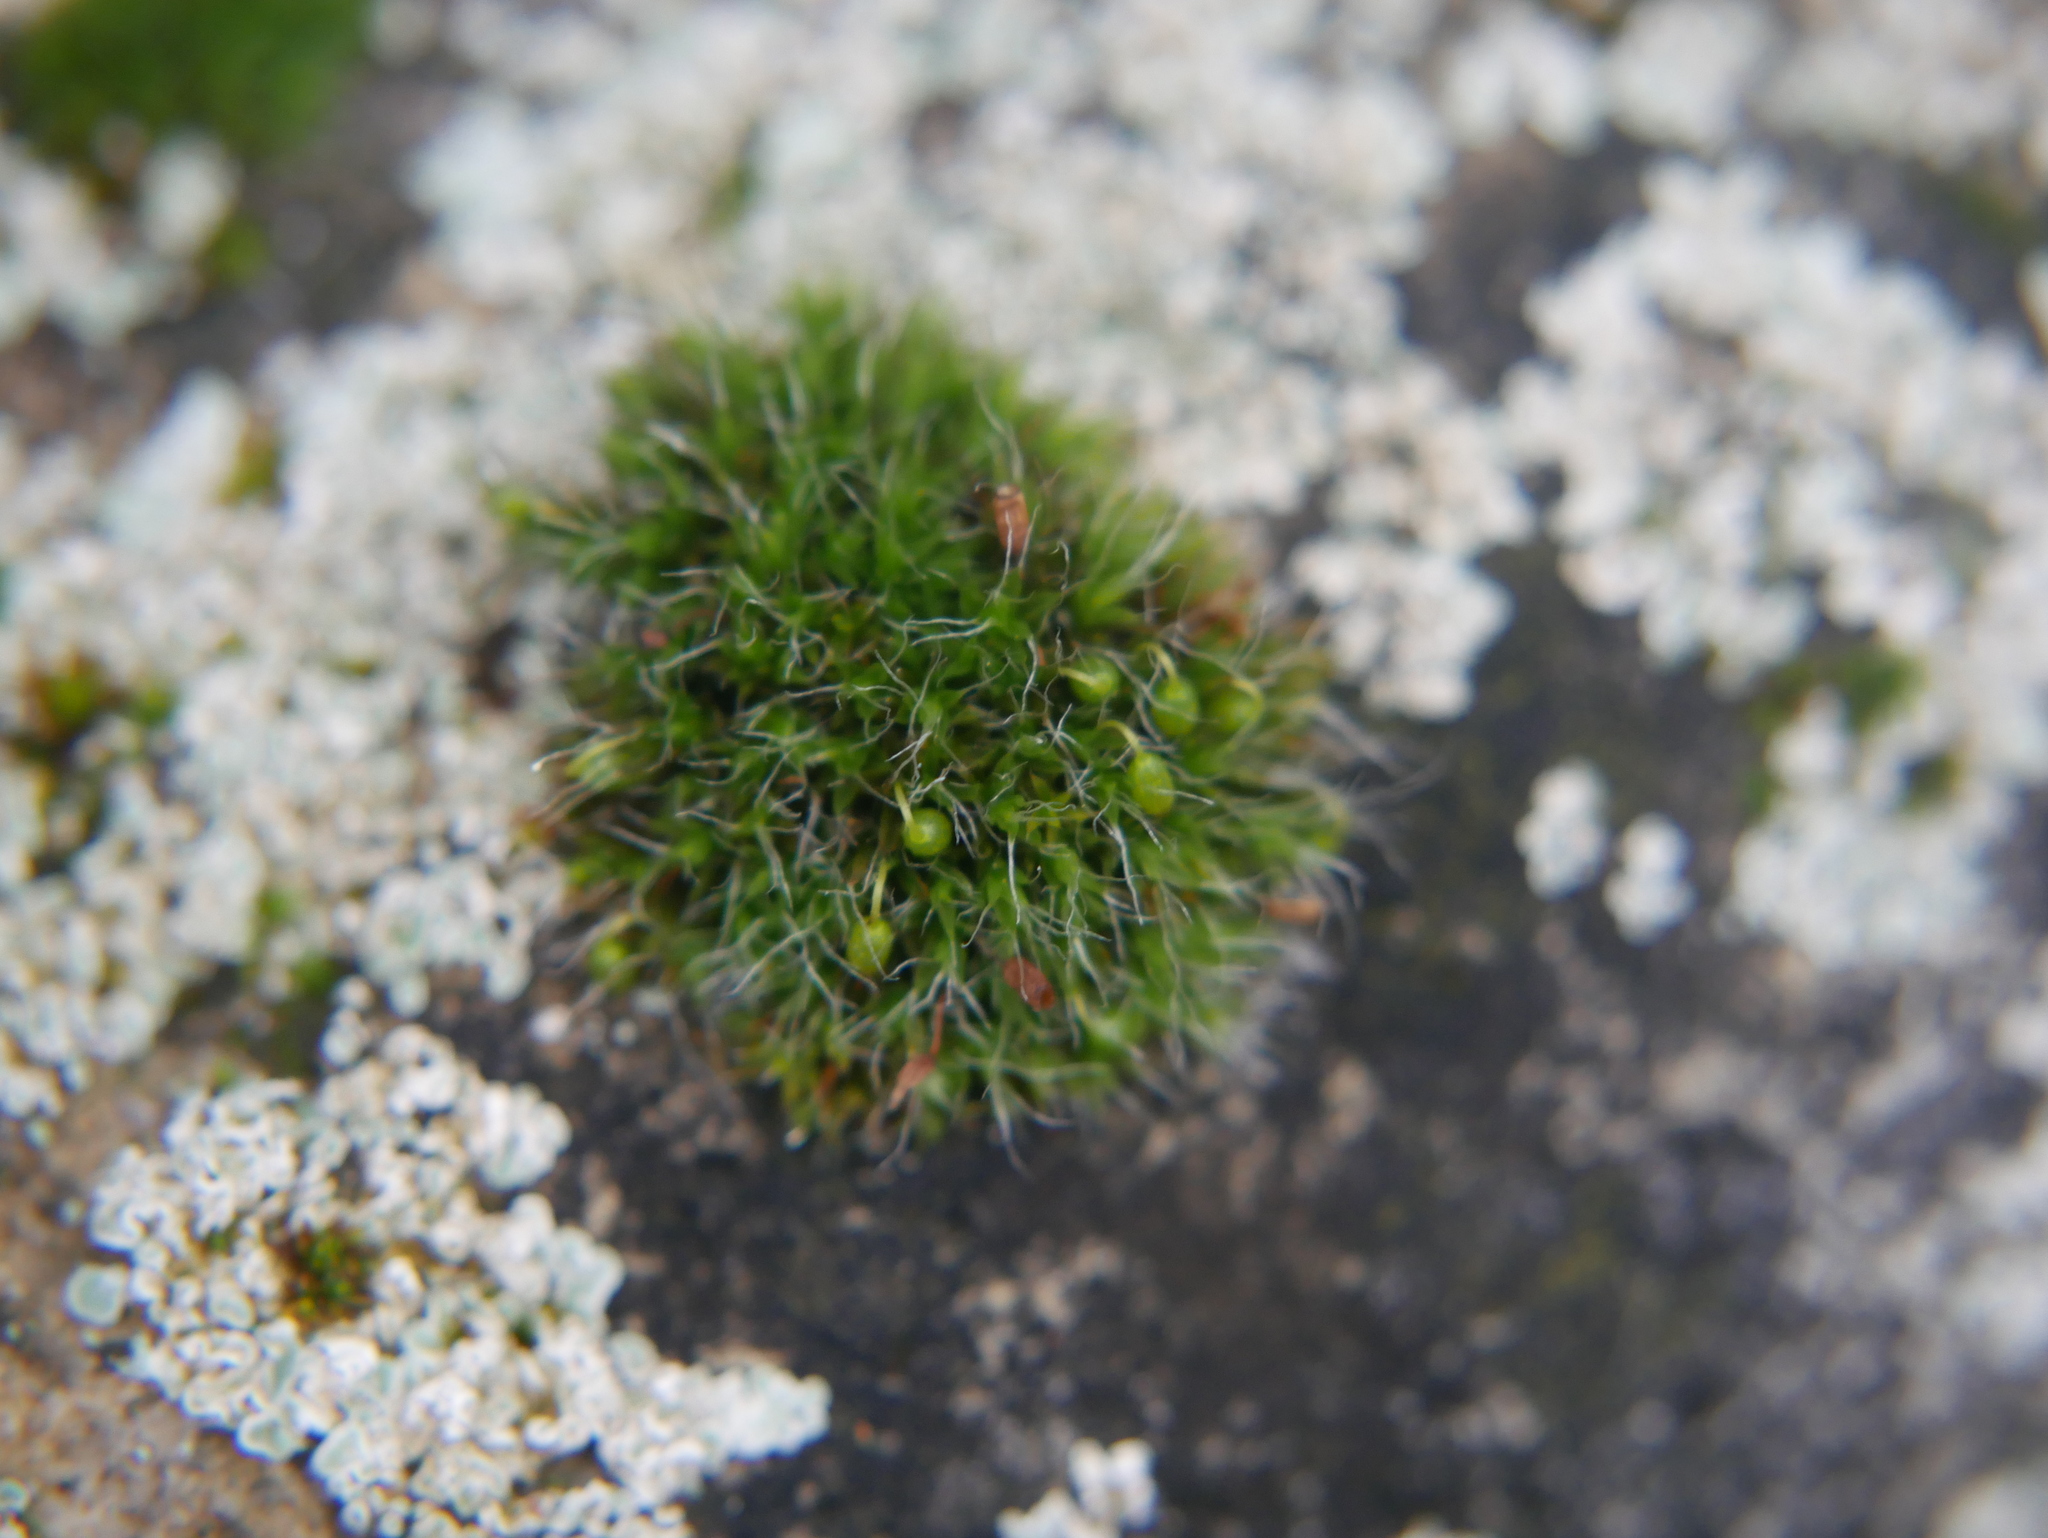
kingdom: Plantae
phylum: Bryophyta
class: Bryopsida
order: Grimmiales
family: Grimmiaceae
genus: Grimmia
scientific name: Grimmia pulvinata
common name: Grey-cushioned grimmia
